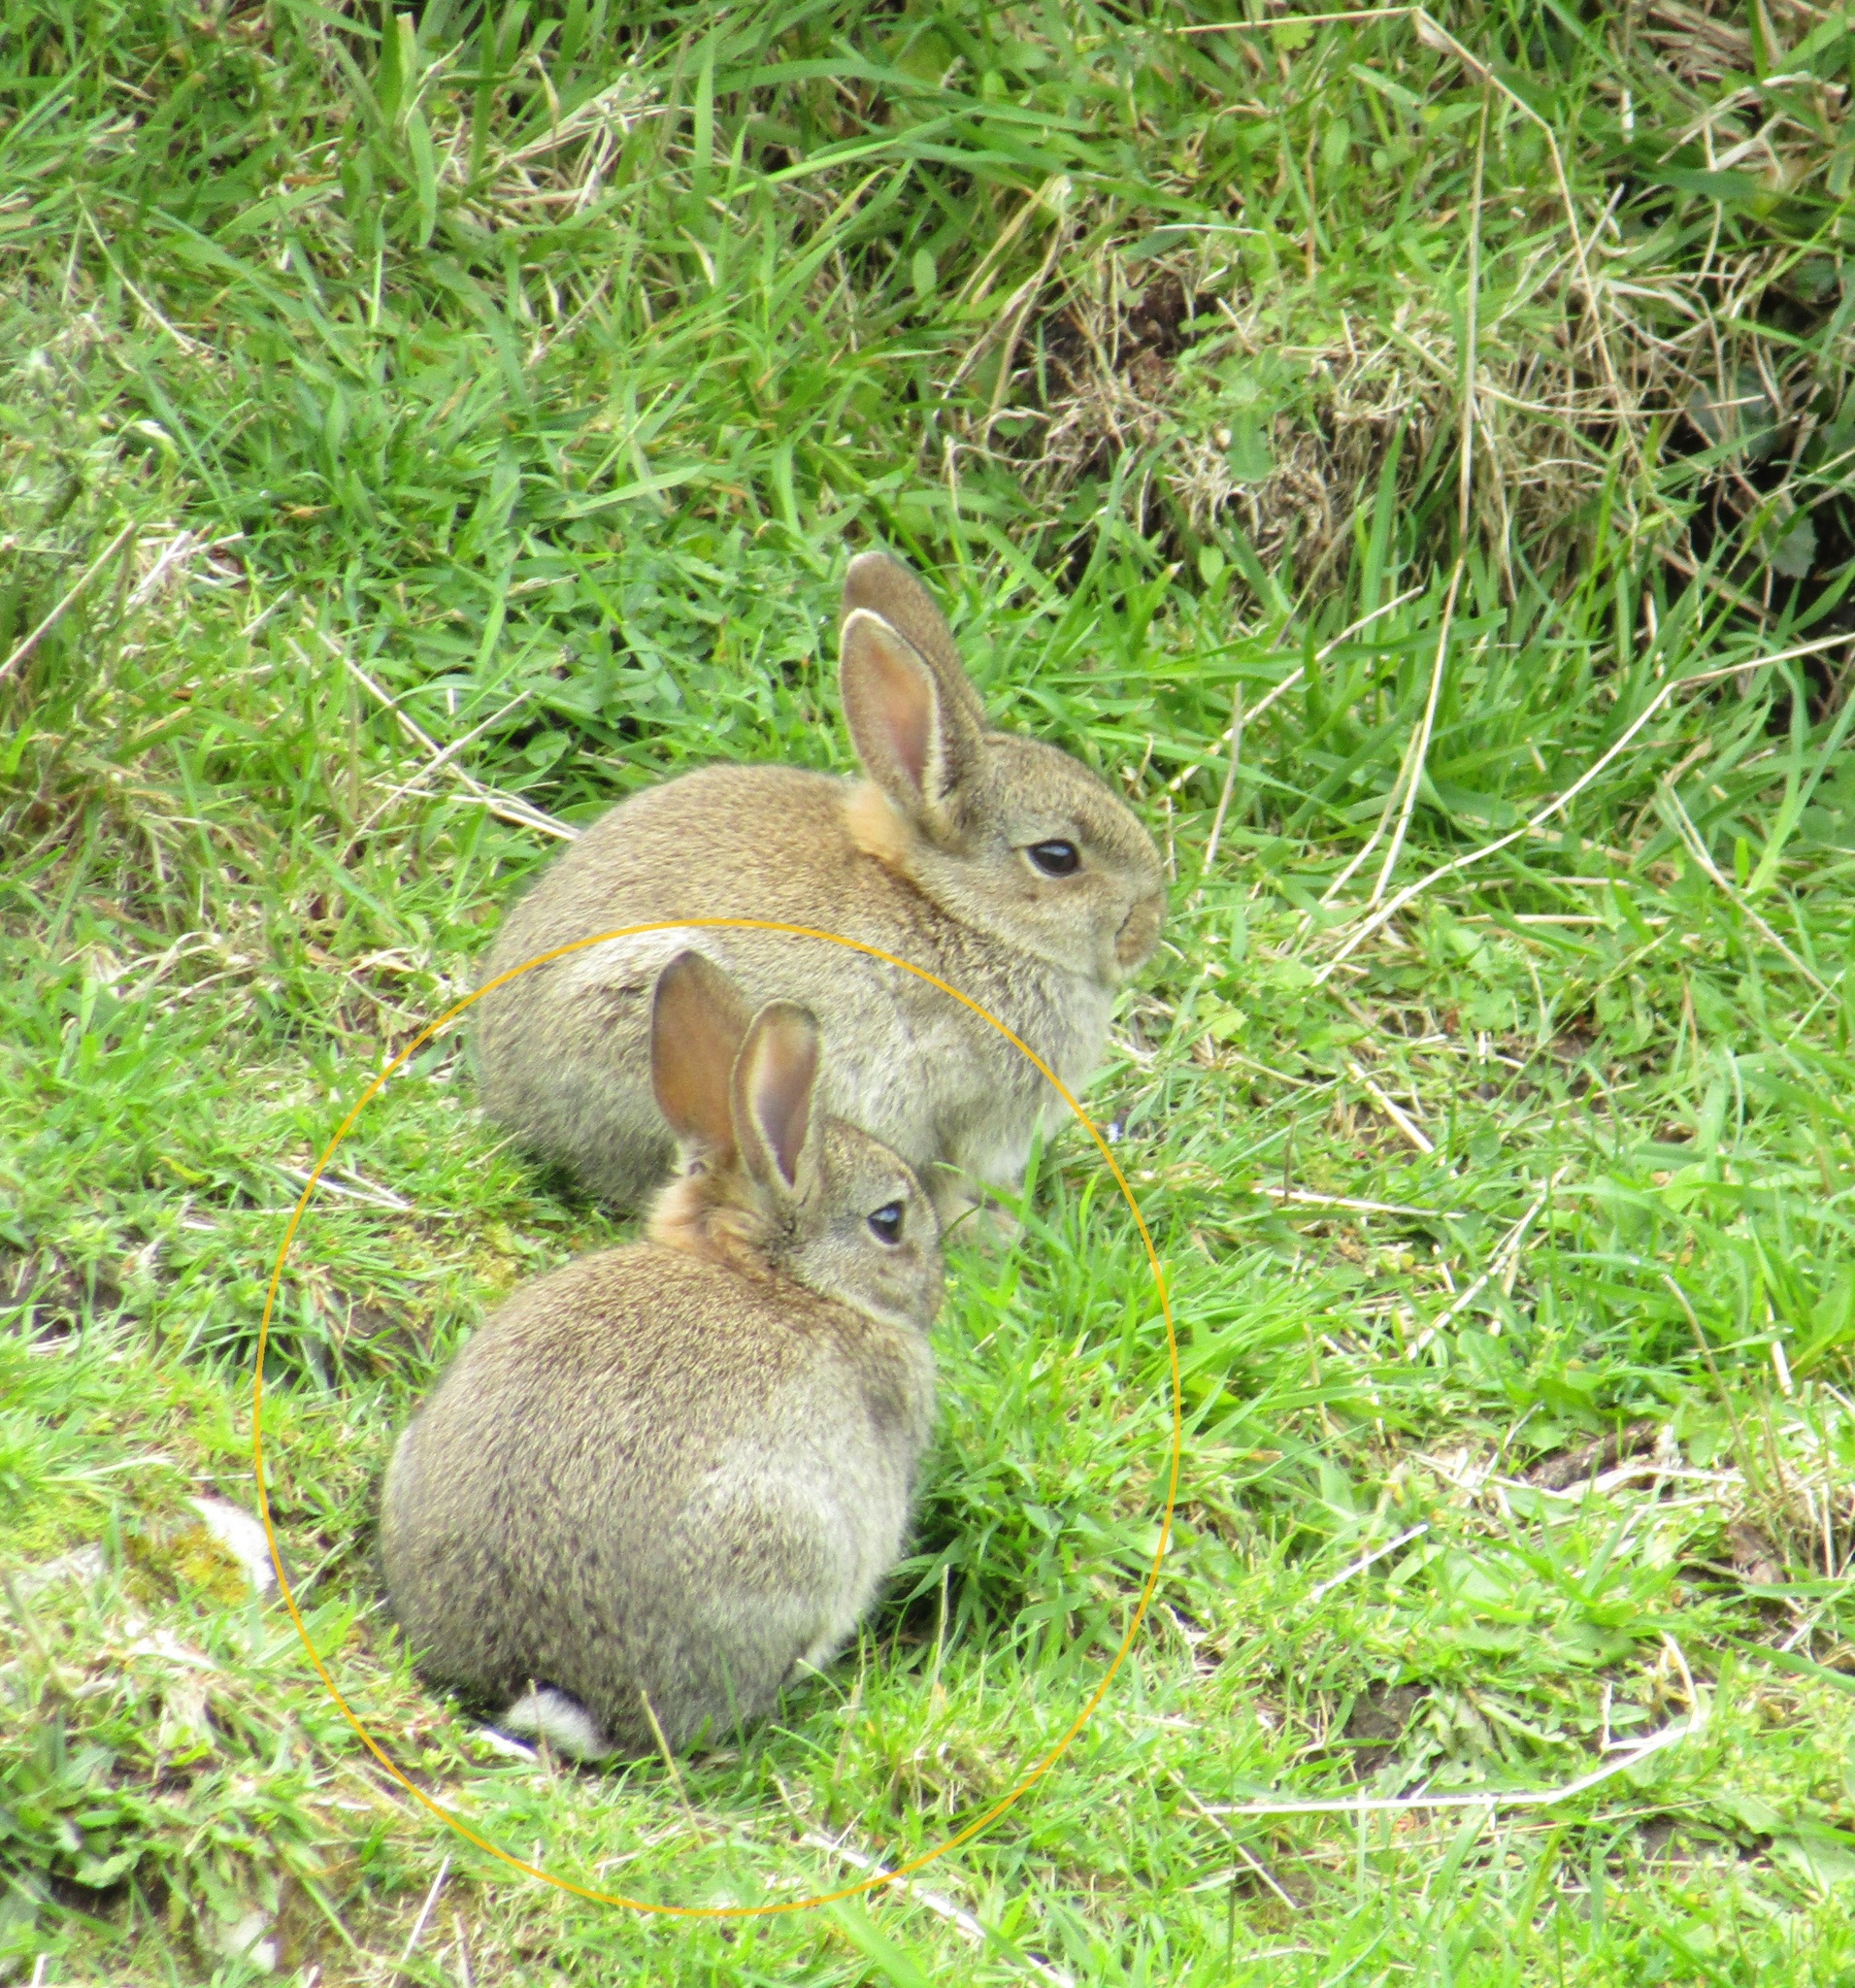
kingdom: Animalia
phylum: Chordata
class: Mammalia
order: Lagomorpha
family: Leporidae
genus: Oryctolagus
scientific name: Oryctolagus cuniculus
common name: European rabbit
